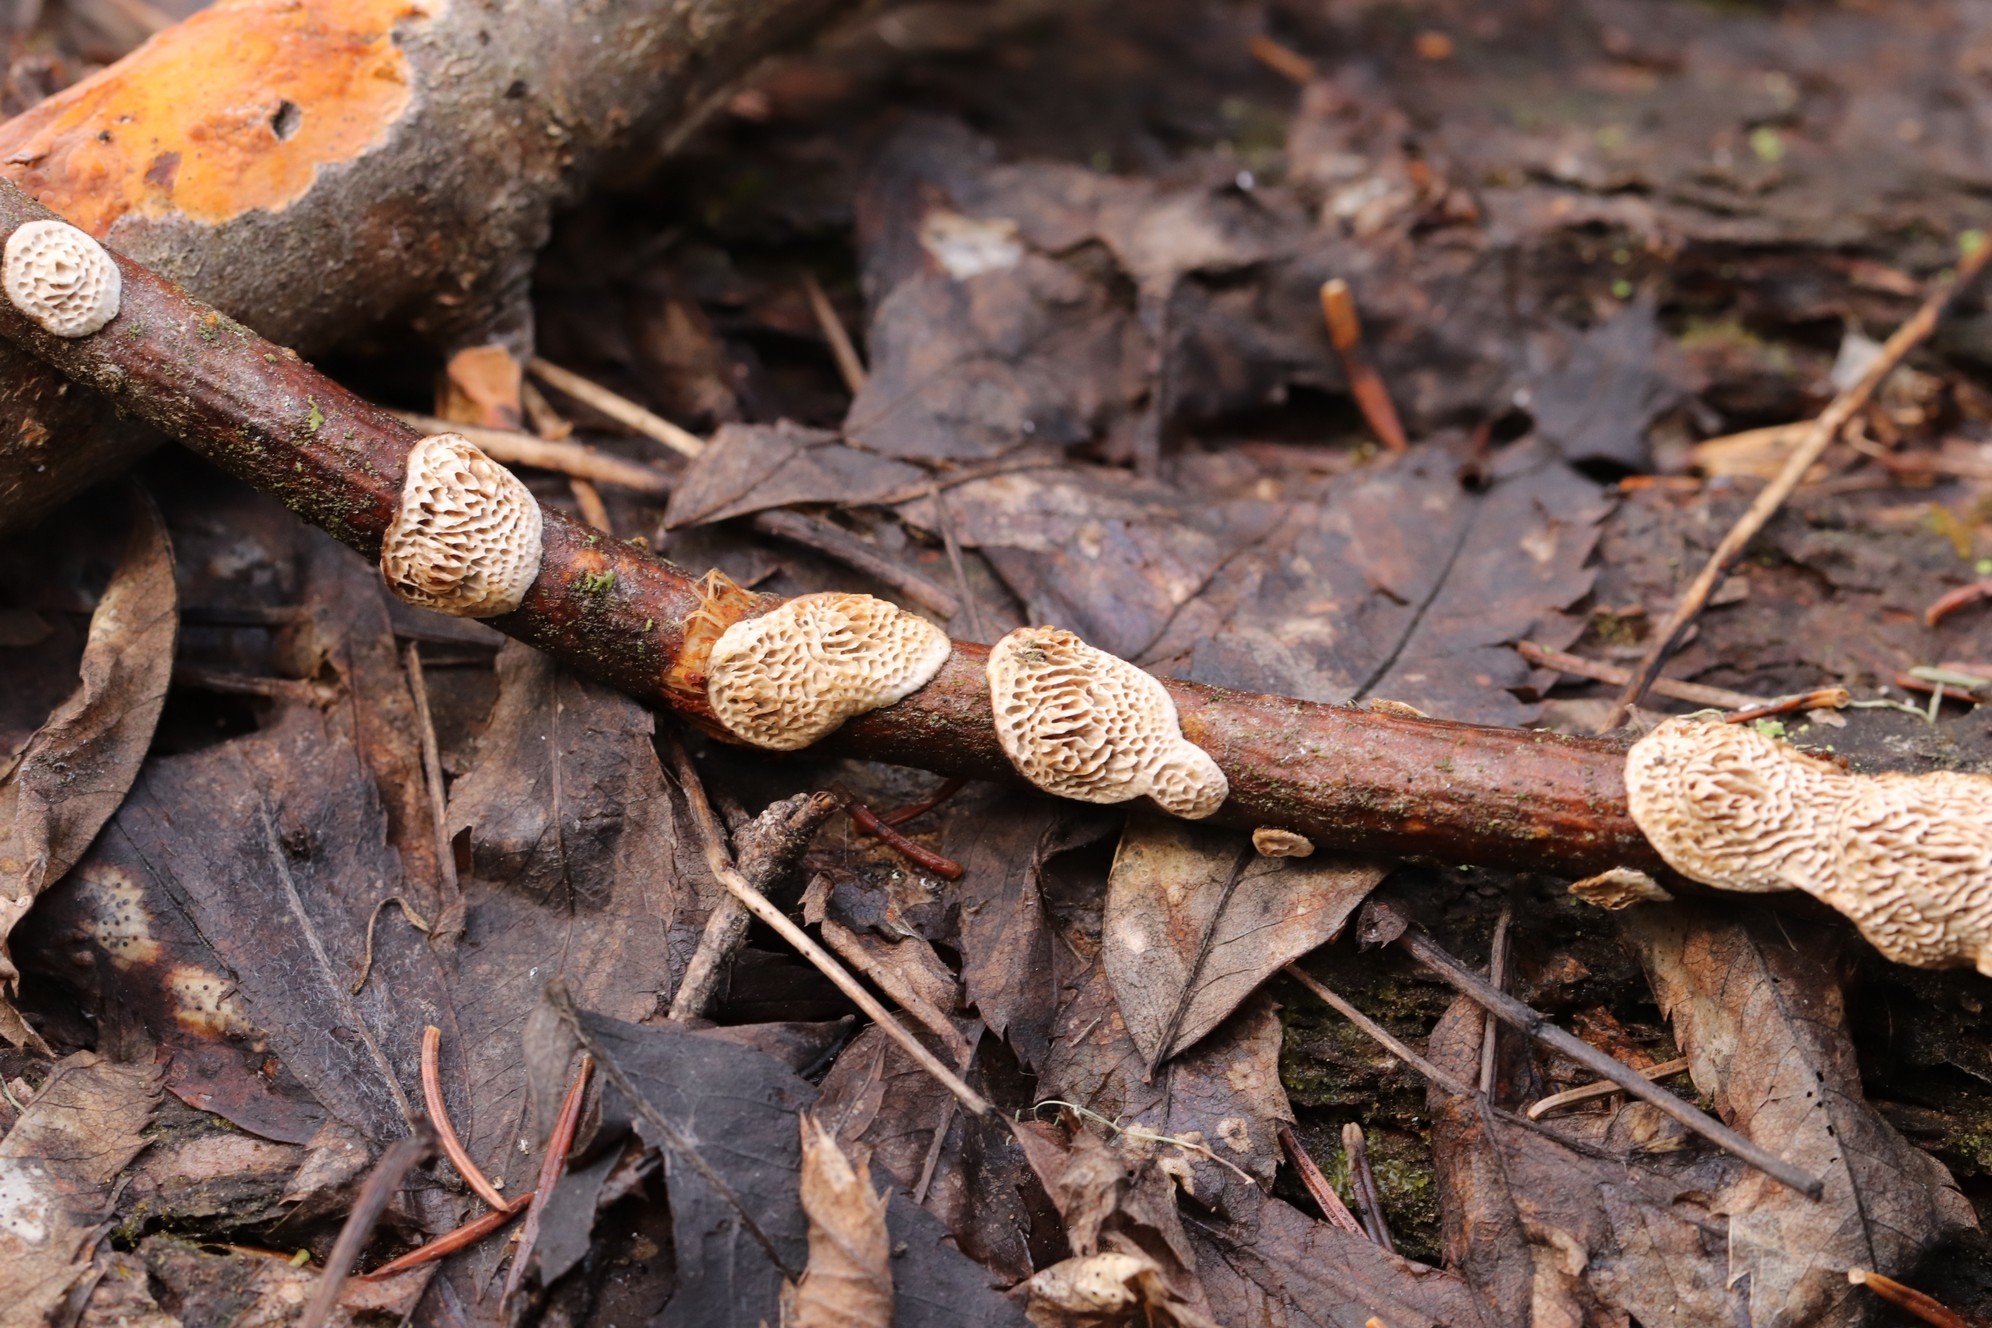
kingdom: Fungi
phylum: Basidiomycota
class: Agaricomycetes
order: Polyporales
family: Polyporaceae
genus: Podofomes
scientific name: Podofomes mollis
